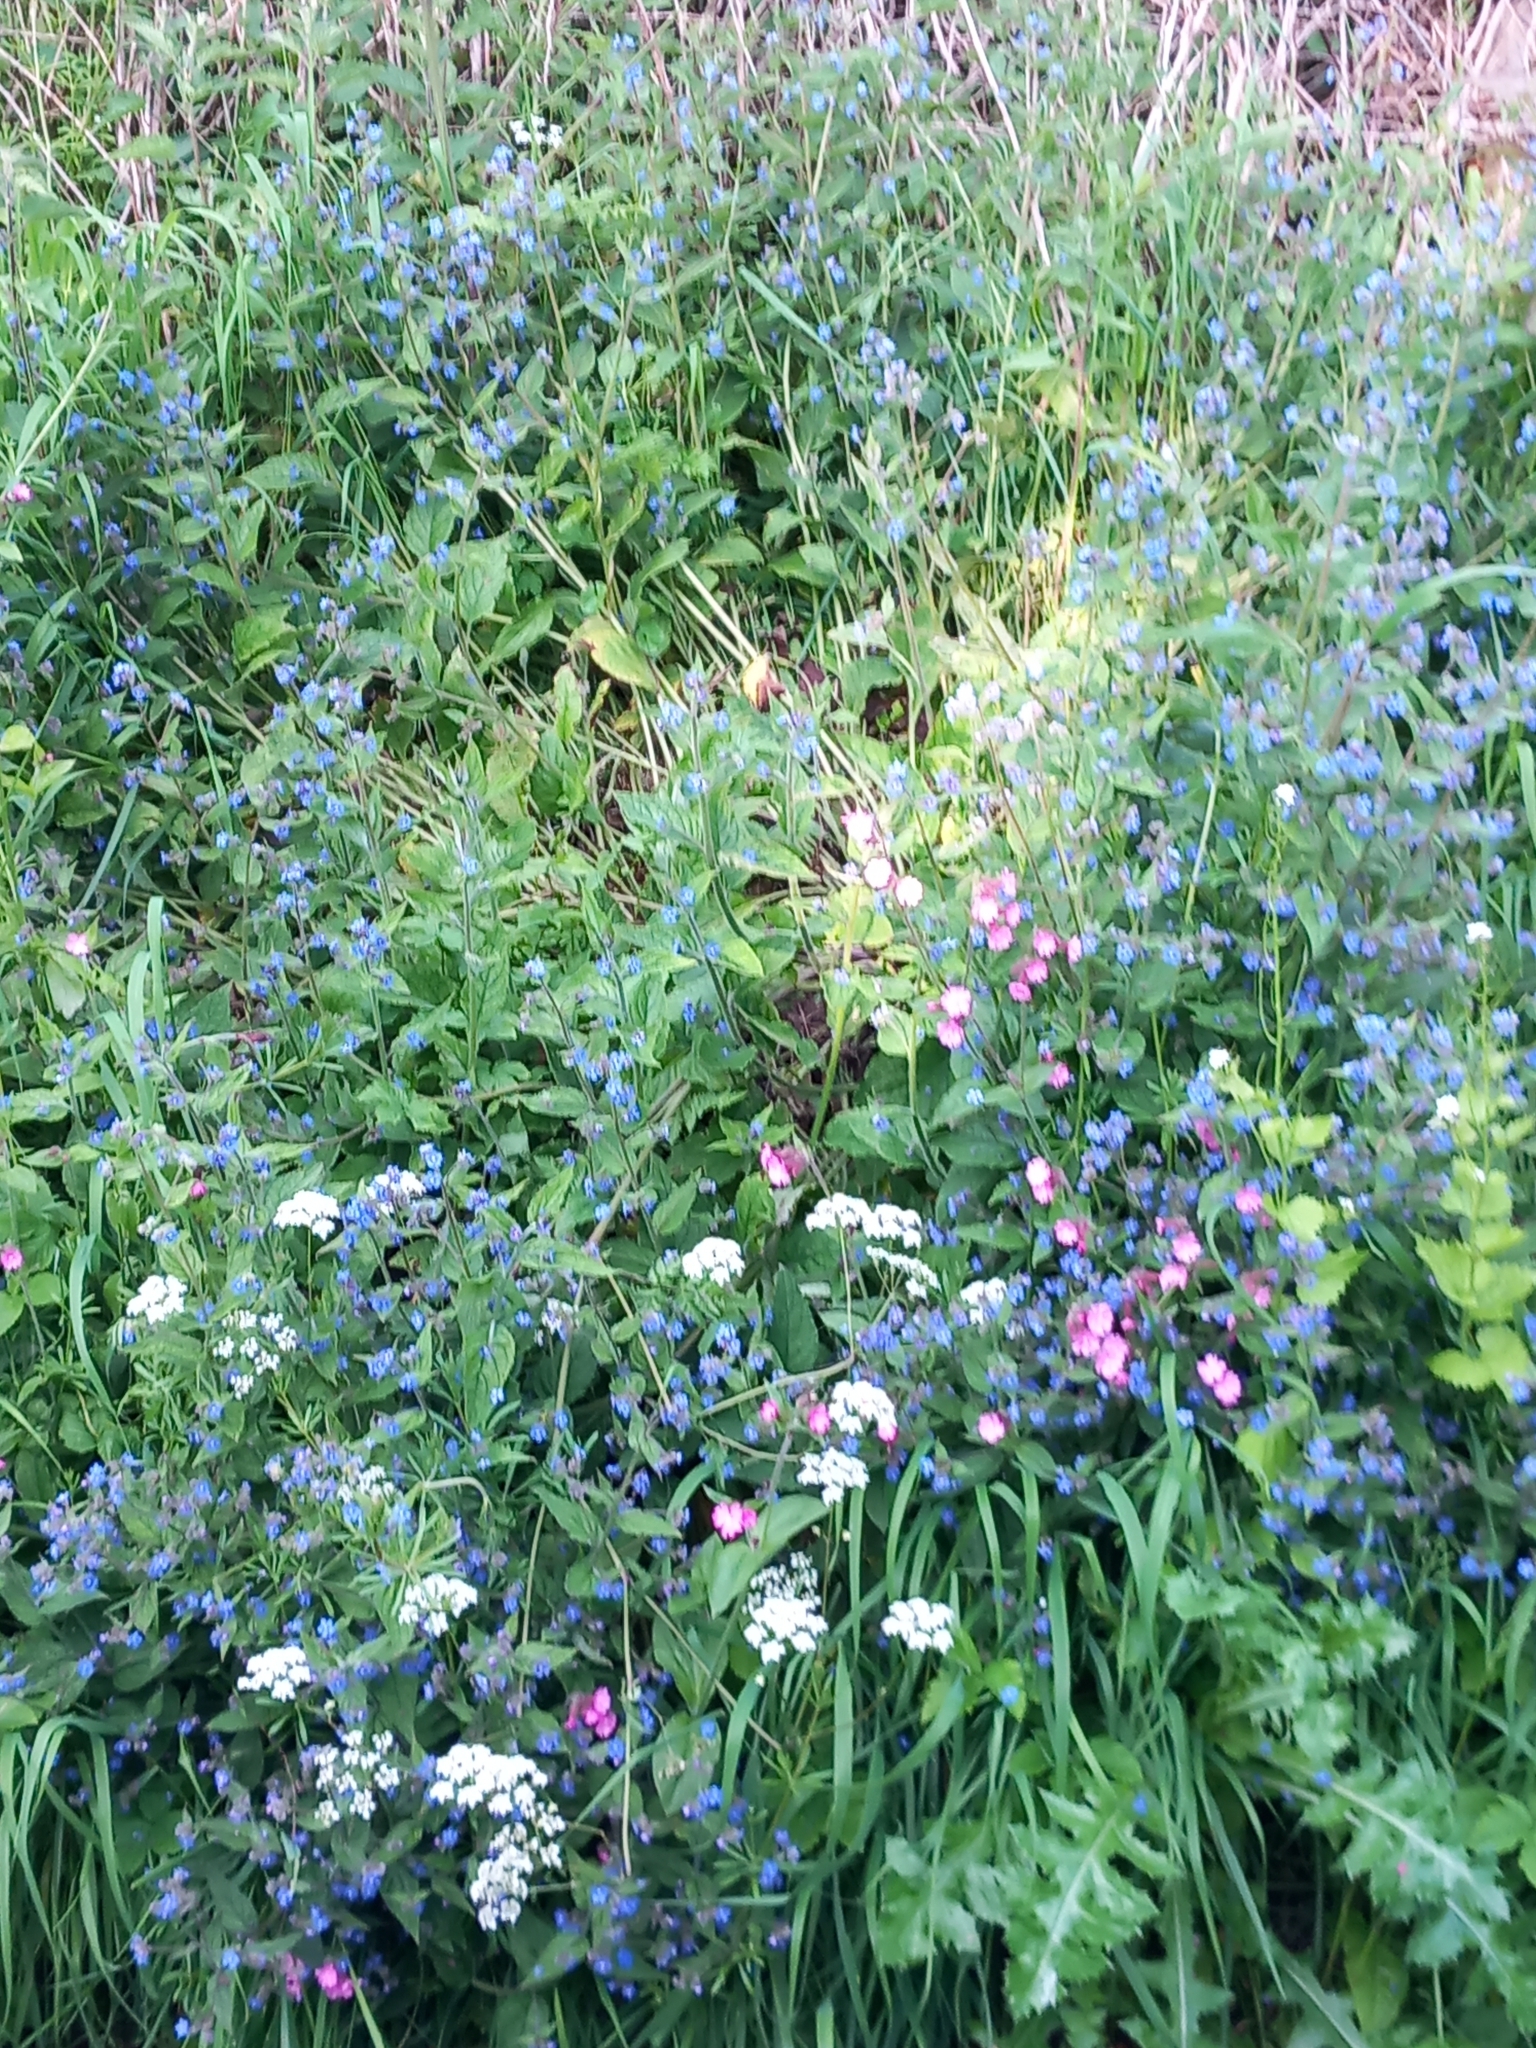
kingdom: Plantae
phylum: Tracheophyta
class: Magnoliopsida
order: Caryophyllales
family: Caryophyllaceae
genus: Silene
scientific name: Silene dioica
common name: Red campion
